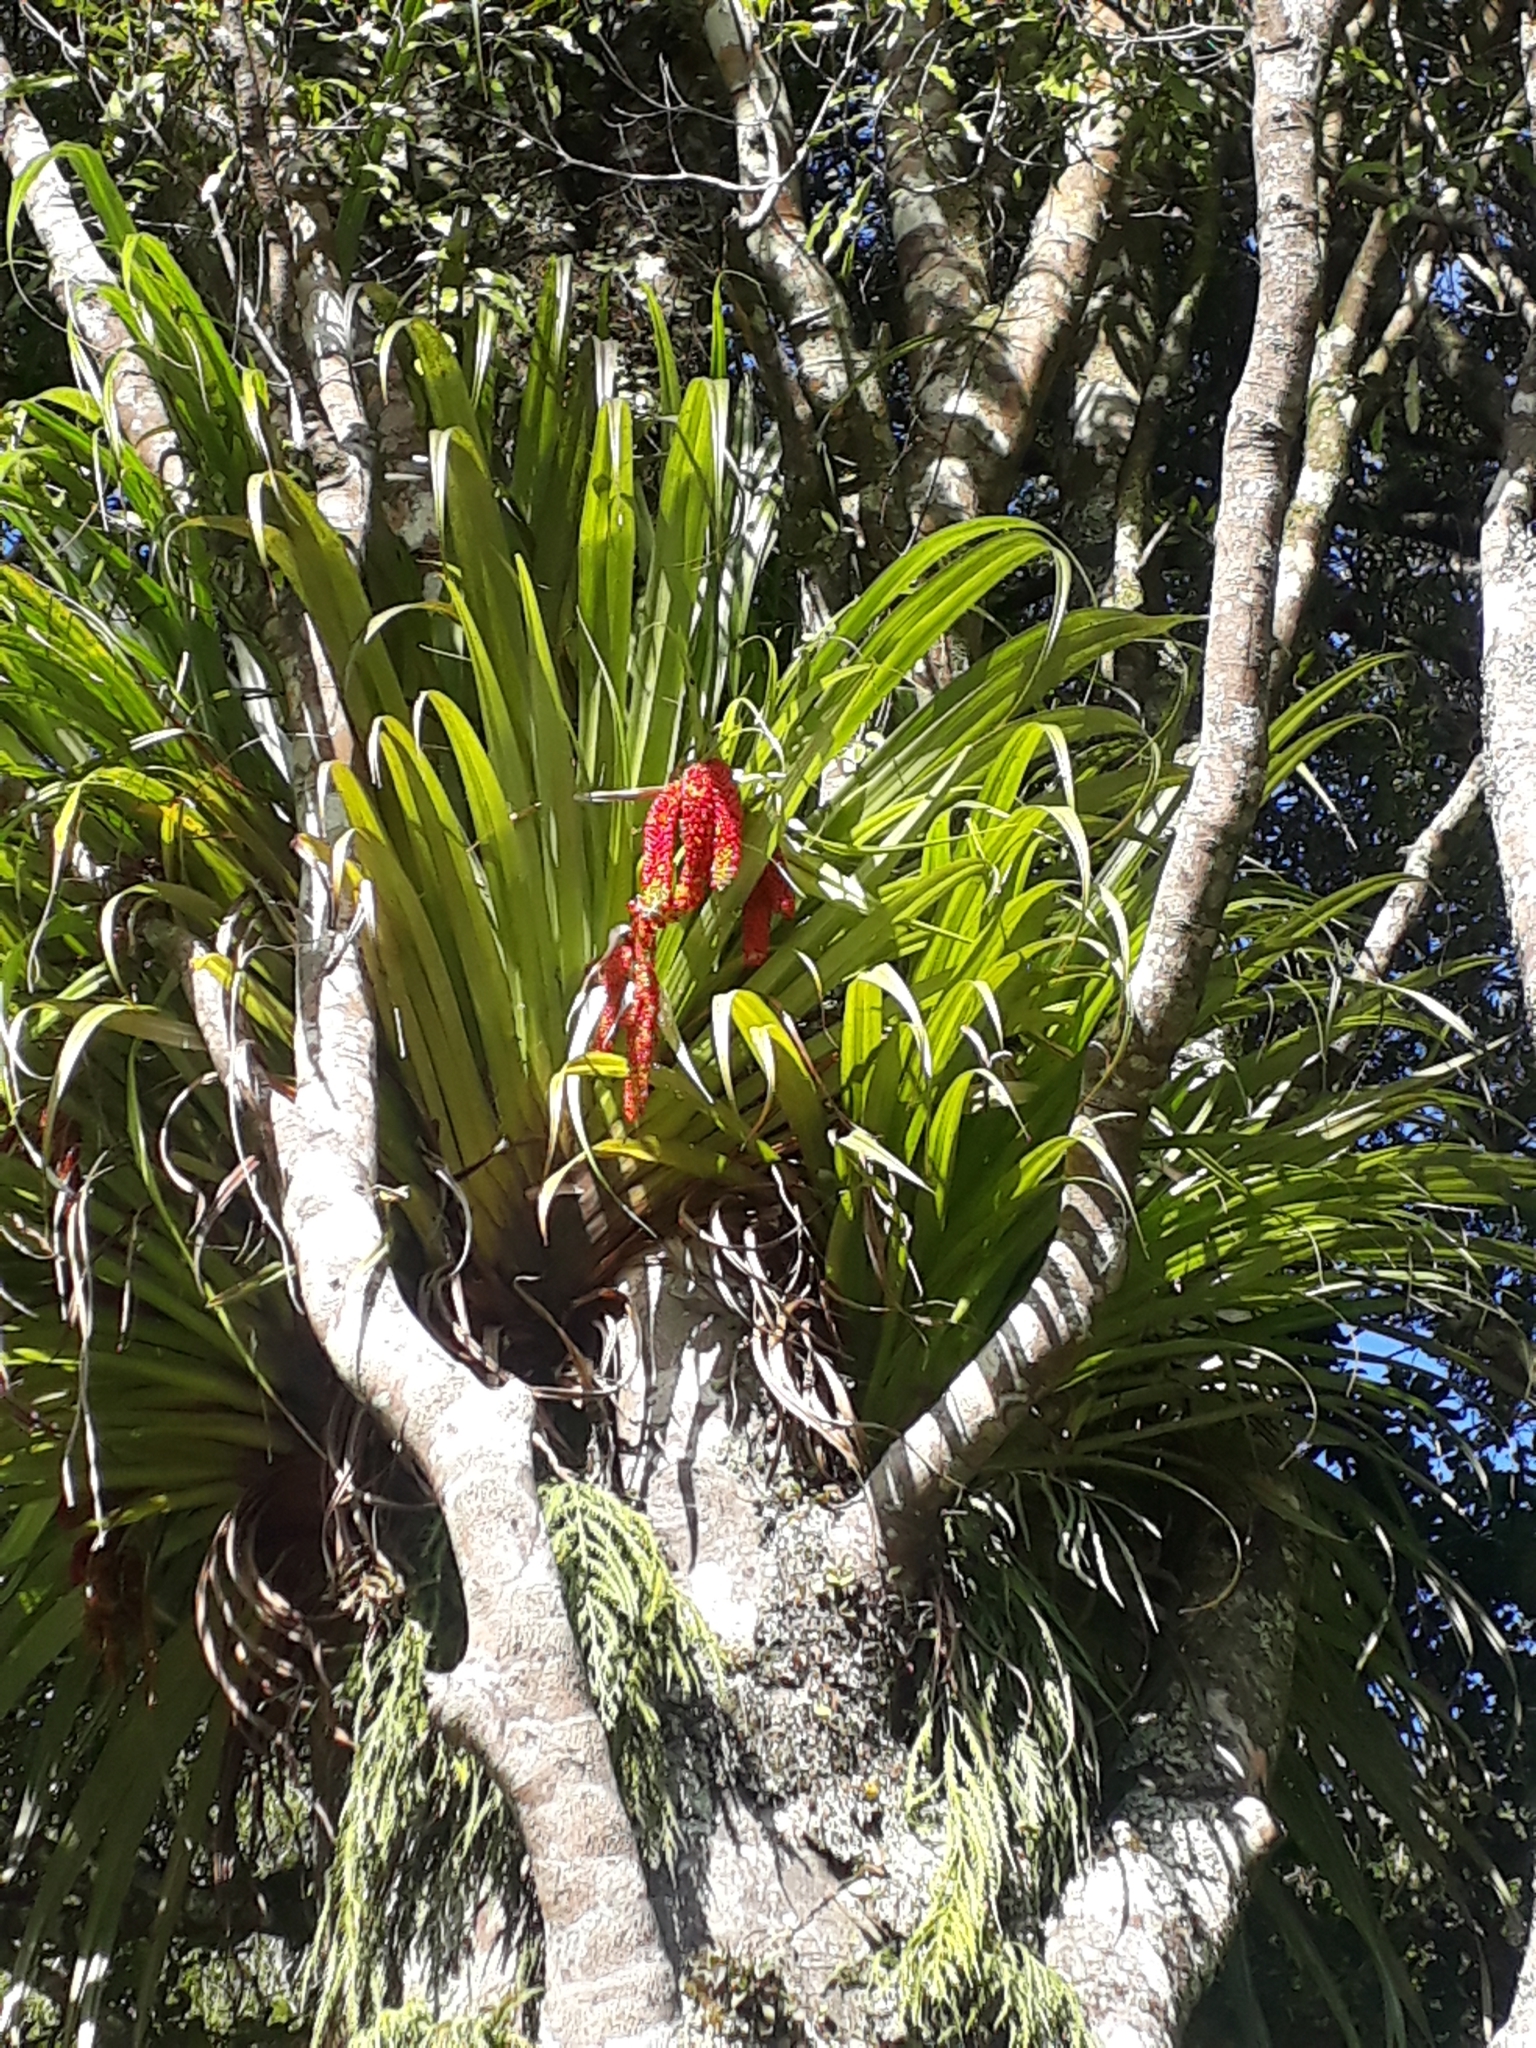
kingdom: Plantae
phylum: Tracheophyta
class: Liliopsida
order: Asparagales
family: Asteliaceae
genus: Astelia
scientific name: Astelia hastata
